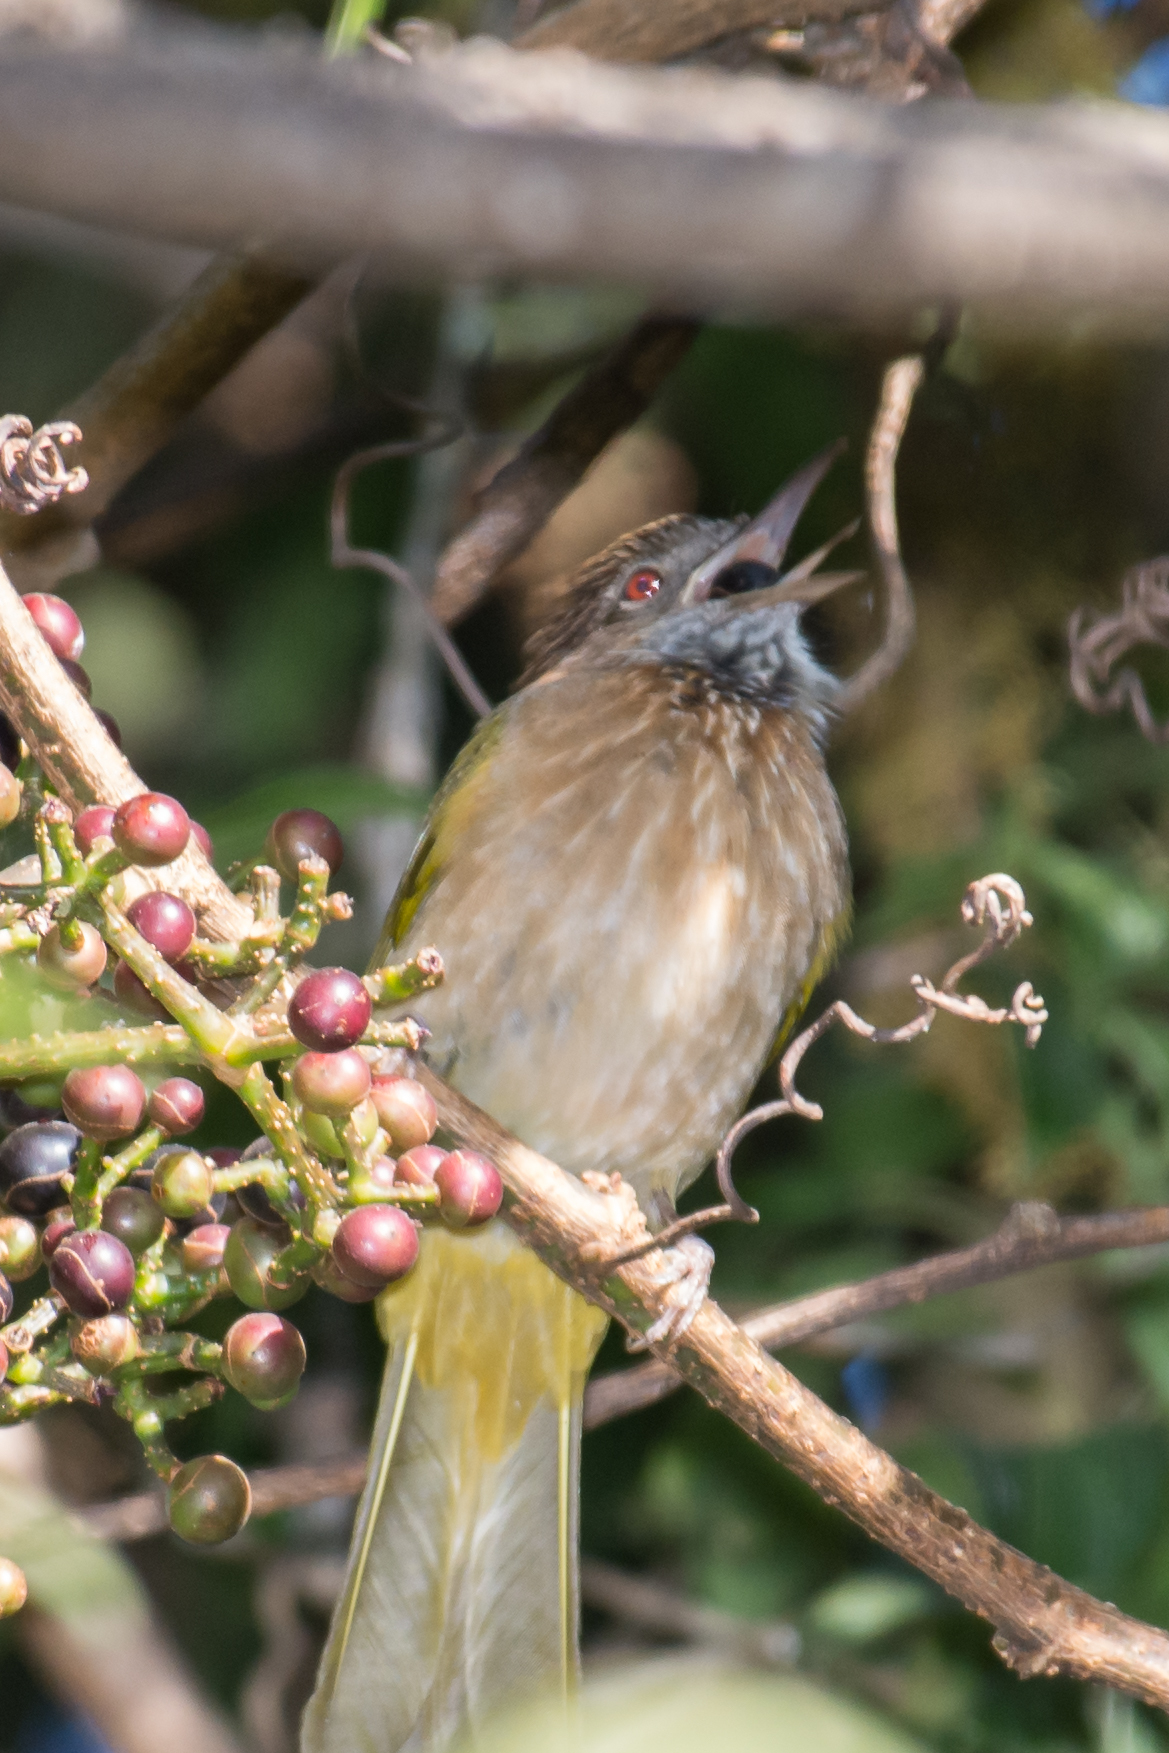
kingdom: Animalia
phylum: Chordata
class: Aves
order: Passeriformes
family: Pycnonotidae
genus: Ixos
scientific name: Ixos mcclellandii
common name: Mountain bulbul
